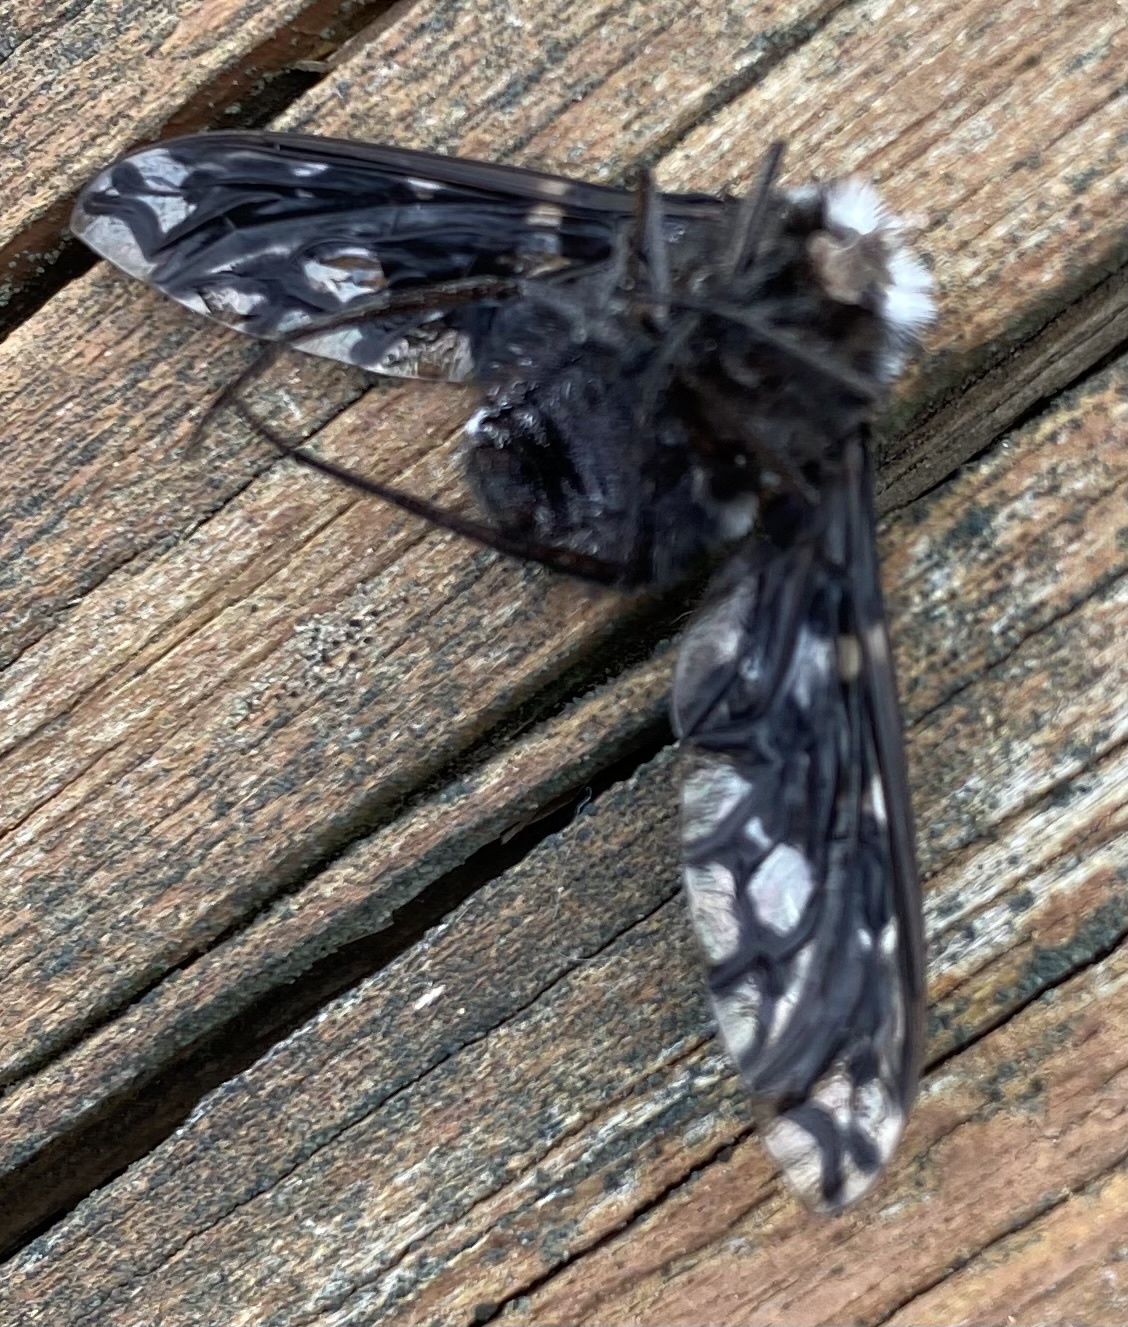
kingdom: Animalia
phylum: Arthropoda
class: Insecta
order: Diptera
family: Bombyliidae
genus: Xenox
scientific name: Xenox tigrinus
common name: Tiger bee fly
